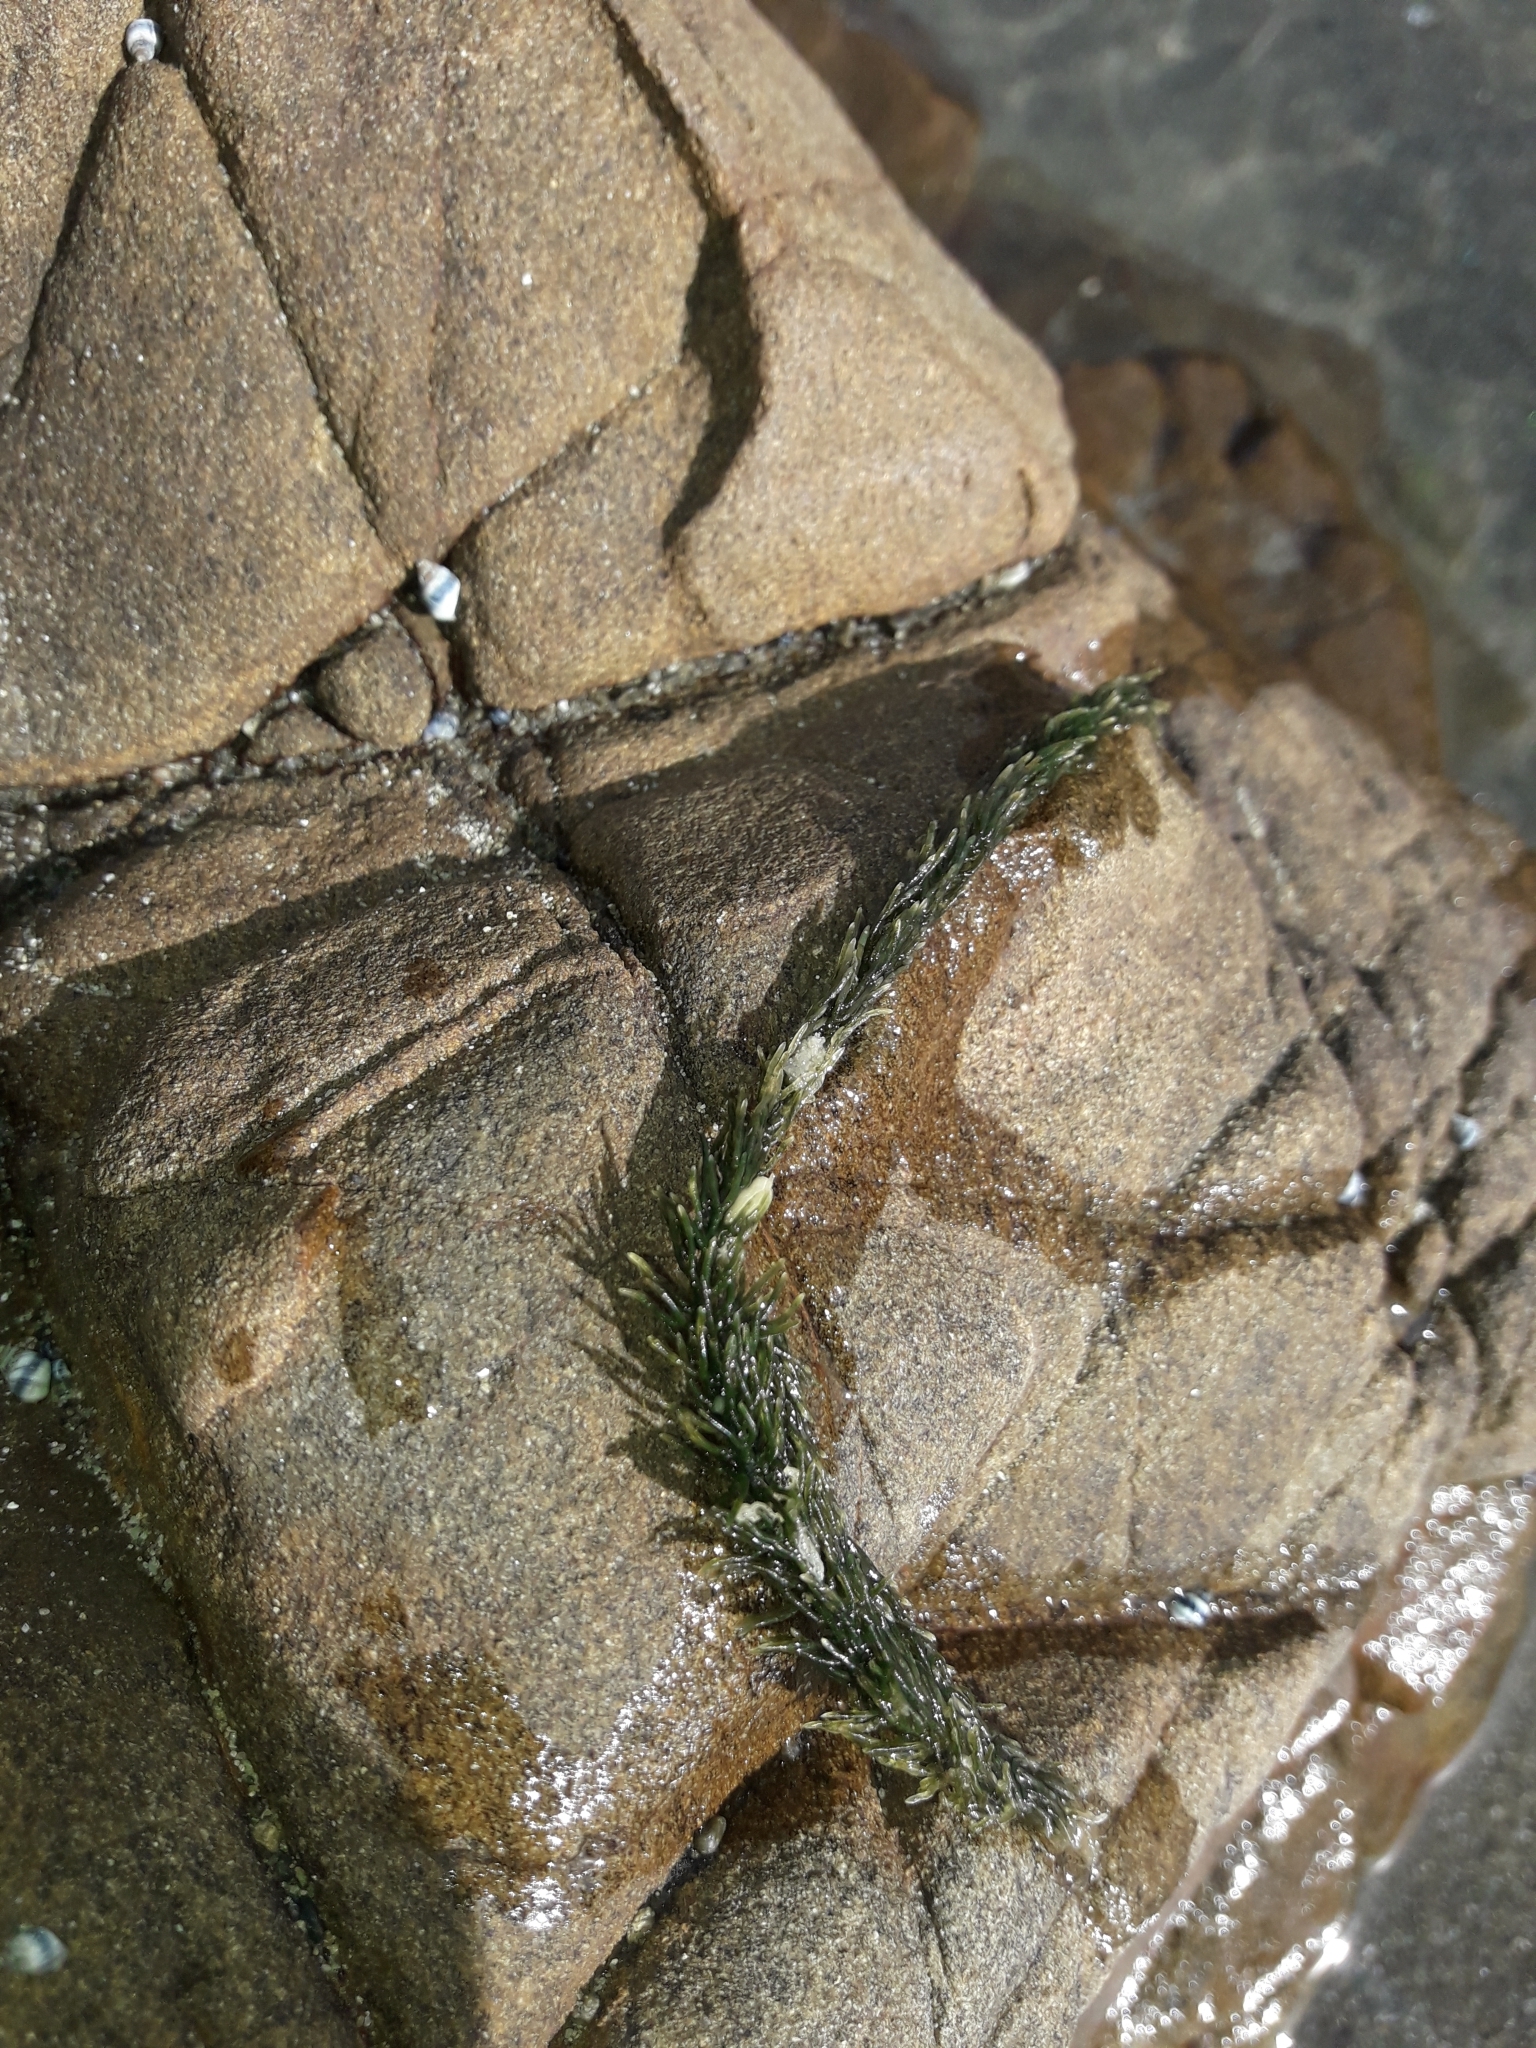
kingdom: Plantae
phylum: Chlorophyta
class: Ulvophyceae
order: Bryopsidales
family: Caulerpaceae
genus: Caulerpa
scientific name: Caulerpa brownii
